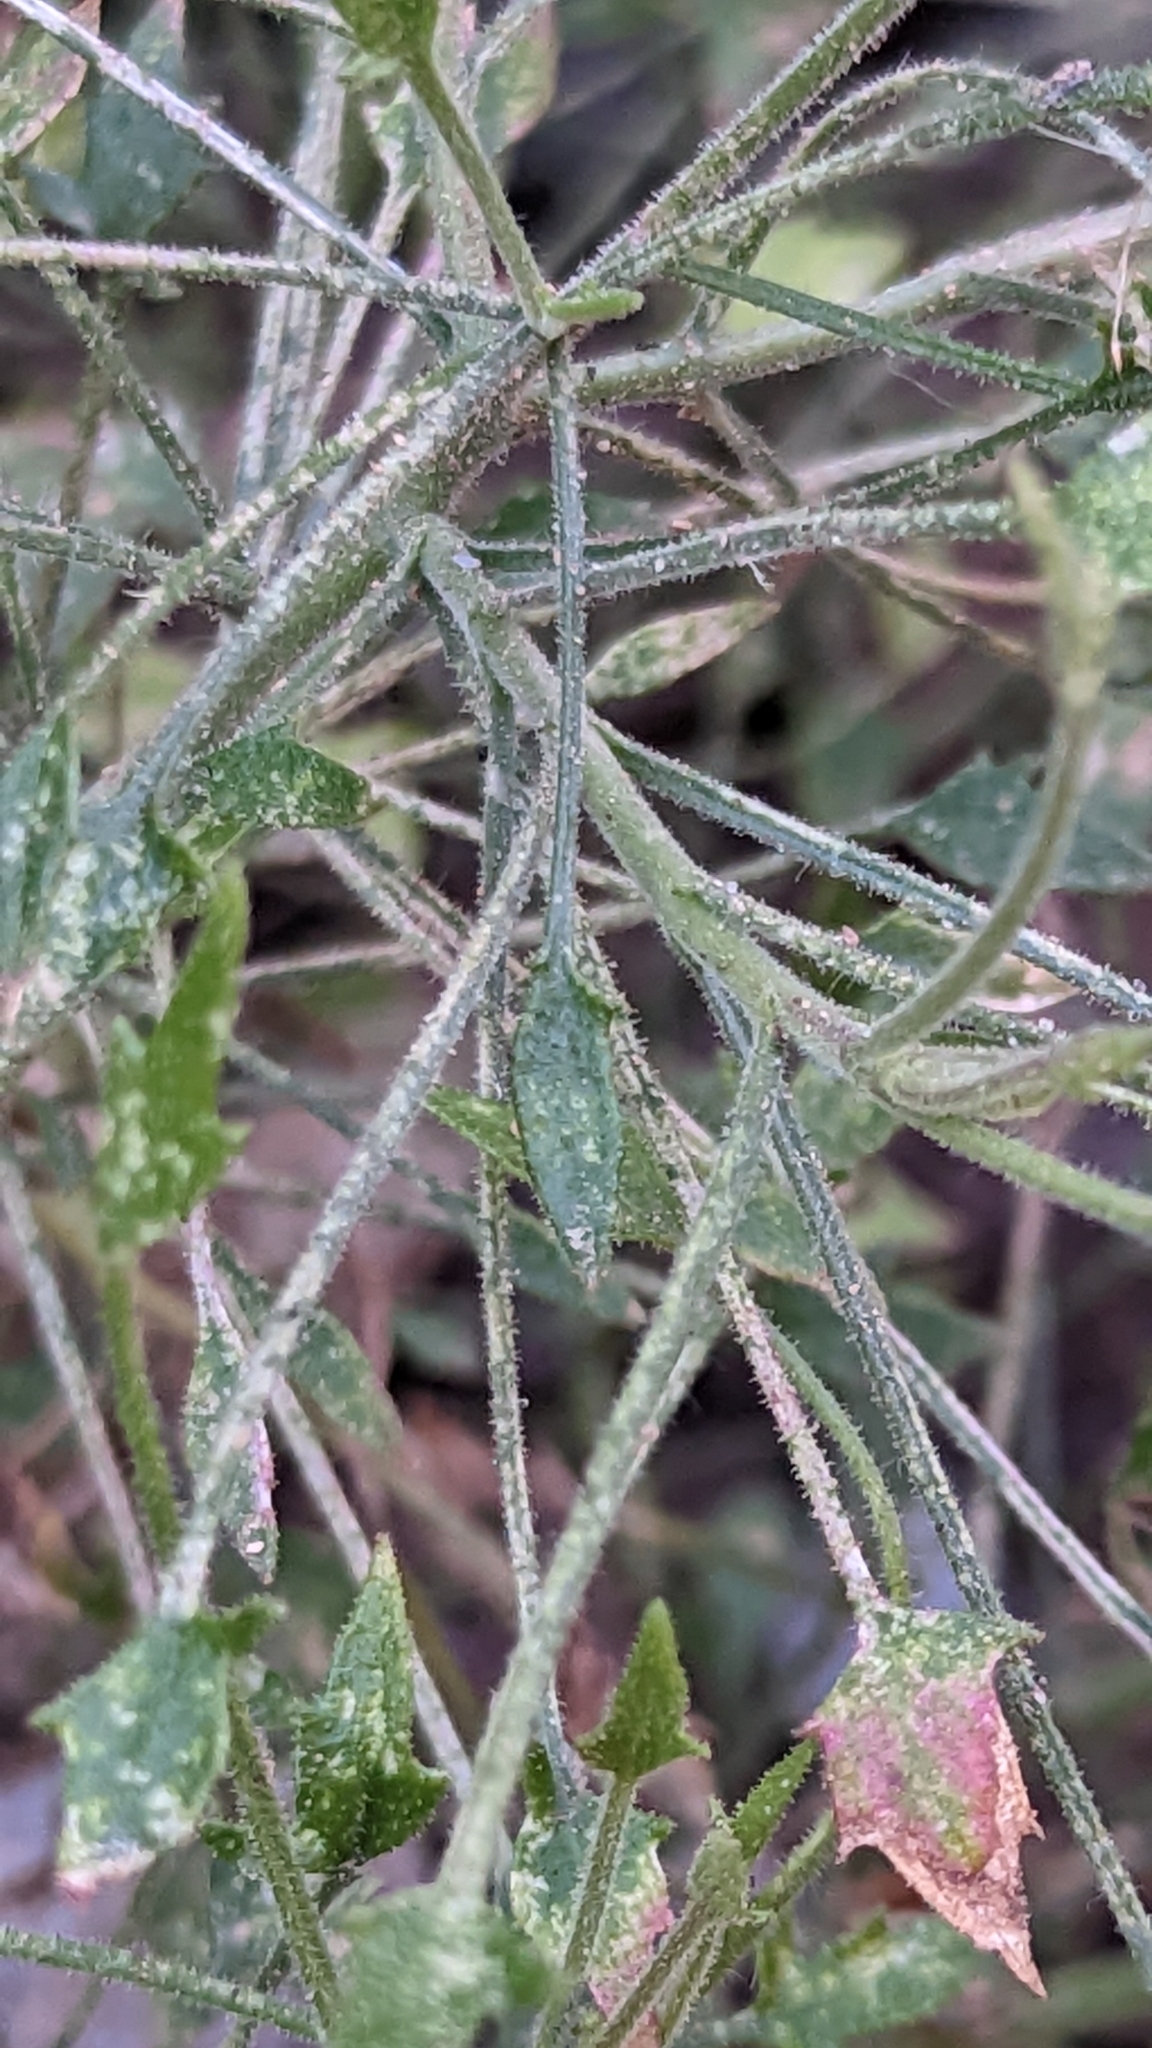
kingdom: Plantae
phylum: Tracheophyta
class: Magnoliopsida
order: Asterales
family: Asteraceae
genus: Pleurocoronis
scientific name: Pleurocoronis pluriseta
